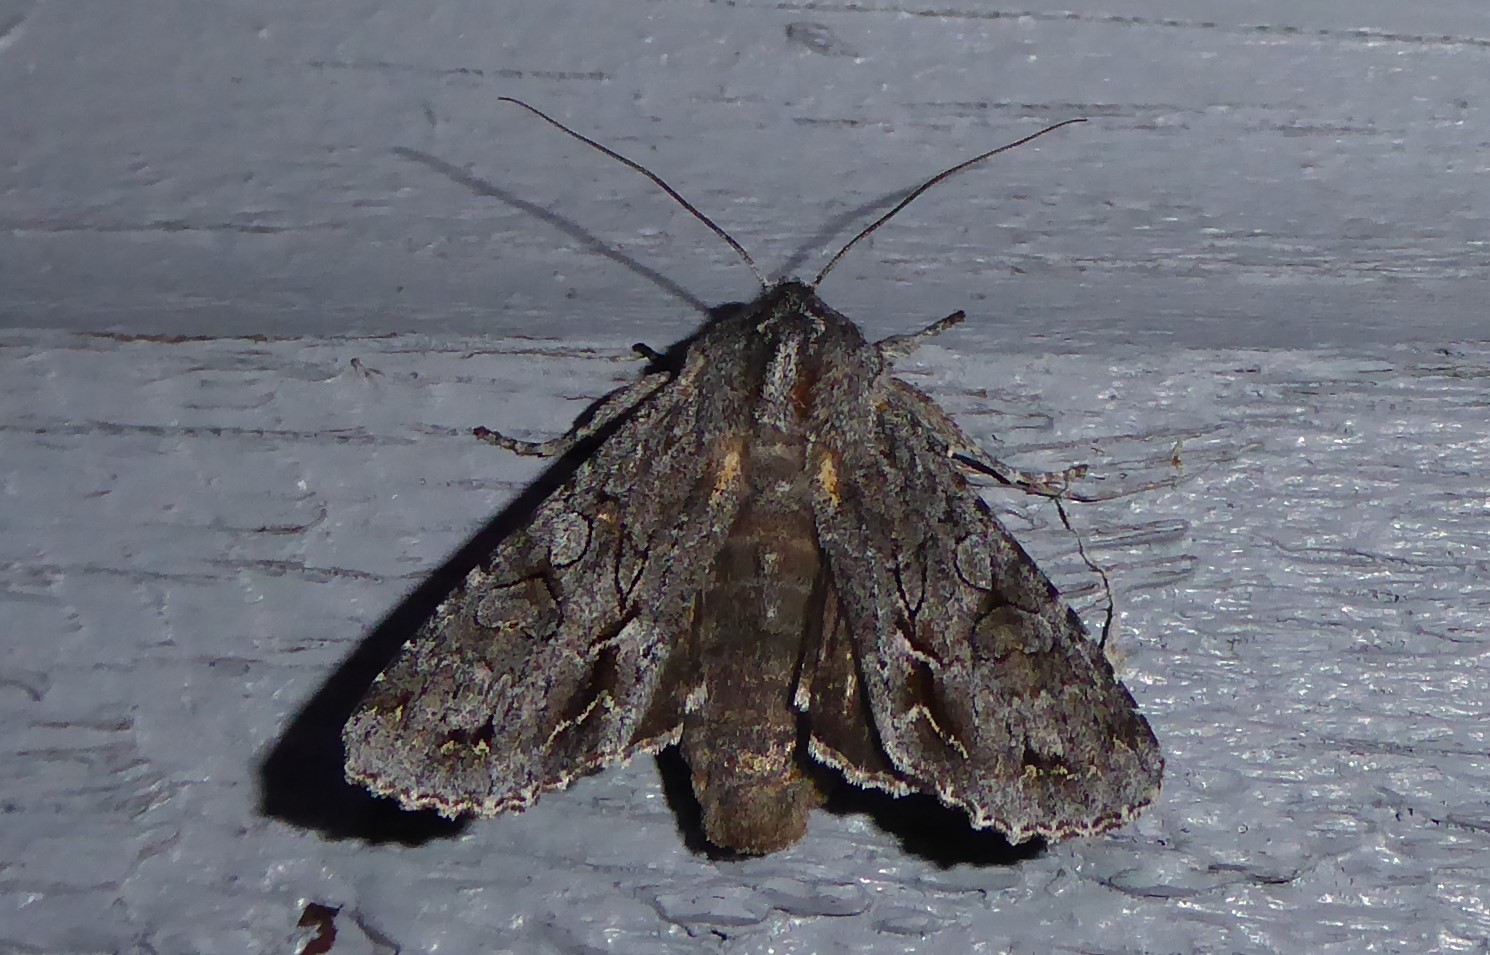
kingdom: Animalia
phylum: Arthropoda
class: Insecta
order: Lepidoptera
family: Noctuidae
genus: Ichneutica
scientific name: Ichneutica
